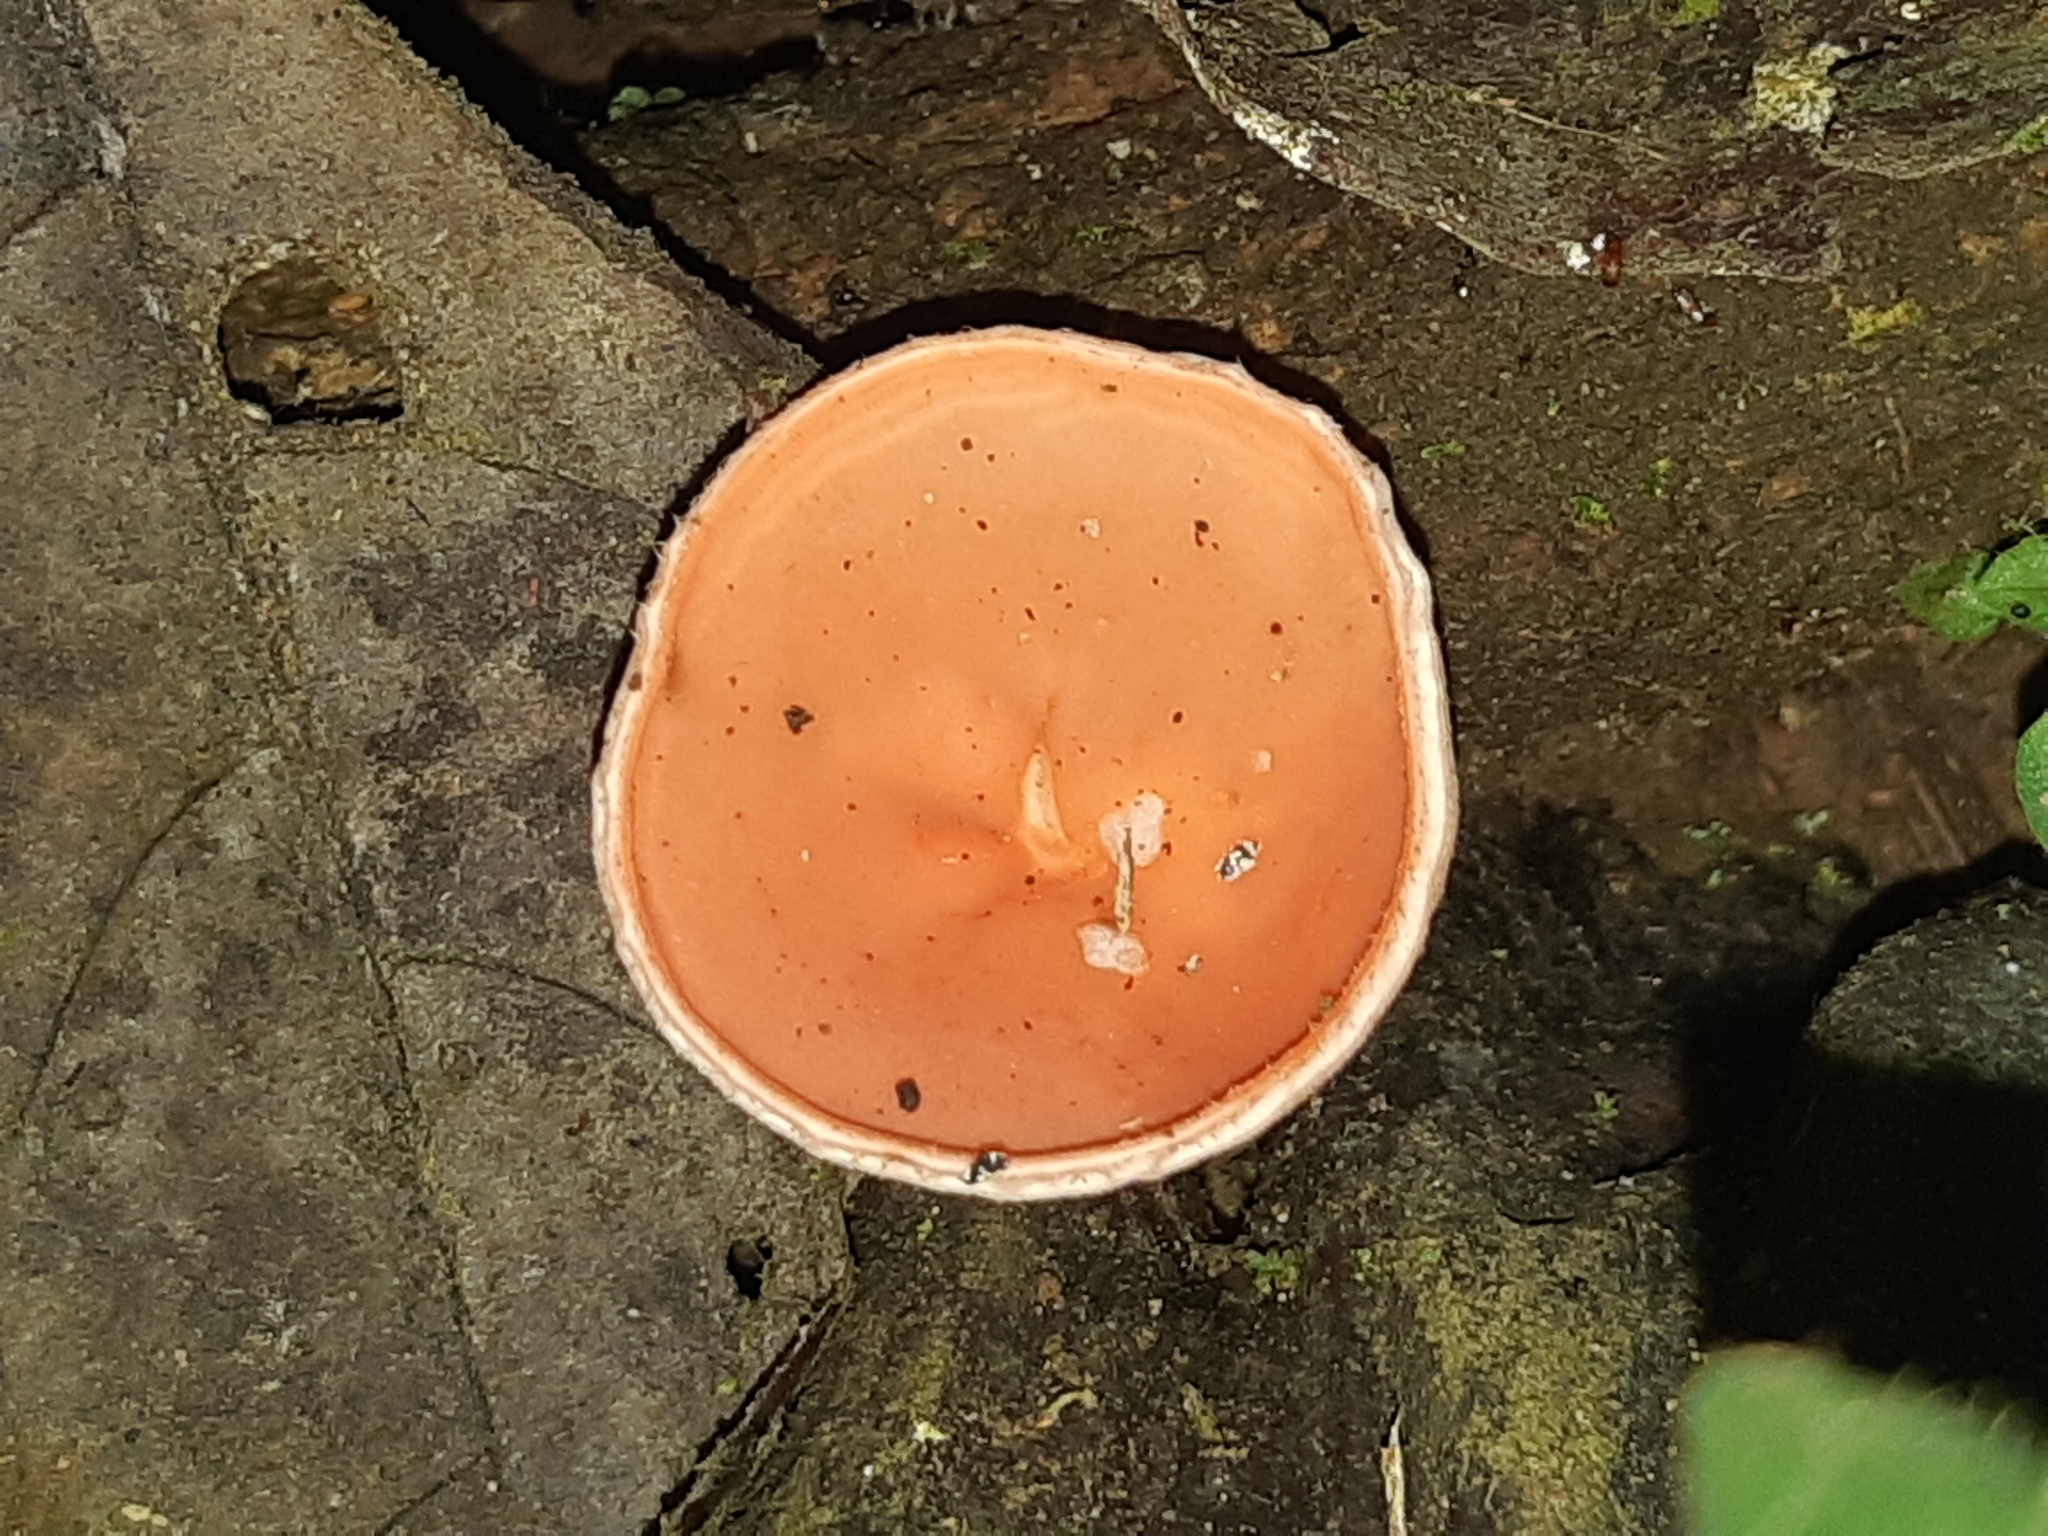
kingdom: Fungi
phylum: Ascomycota
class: Pezizomycetes
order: Pezizales
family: Sarcoscyphaceae
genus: Cookeina
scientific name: Cookeina speciosa
